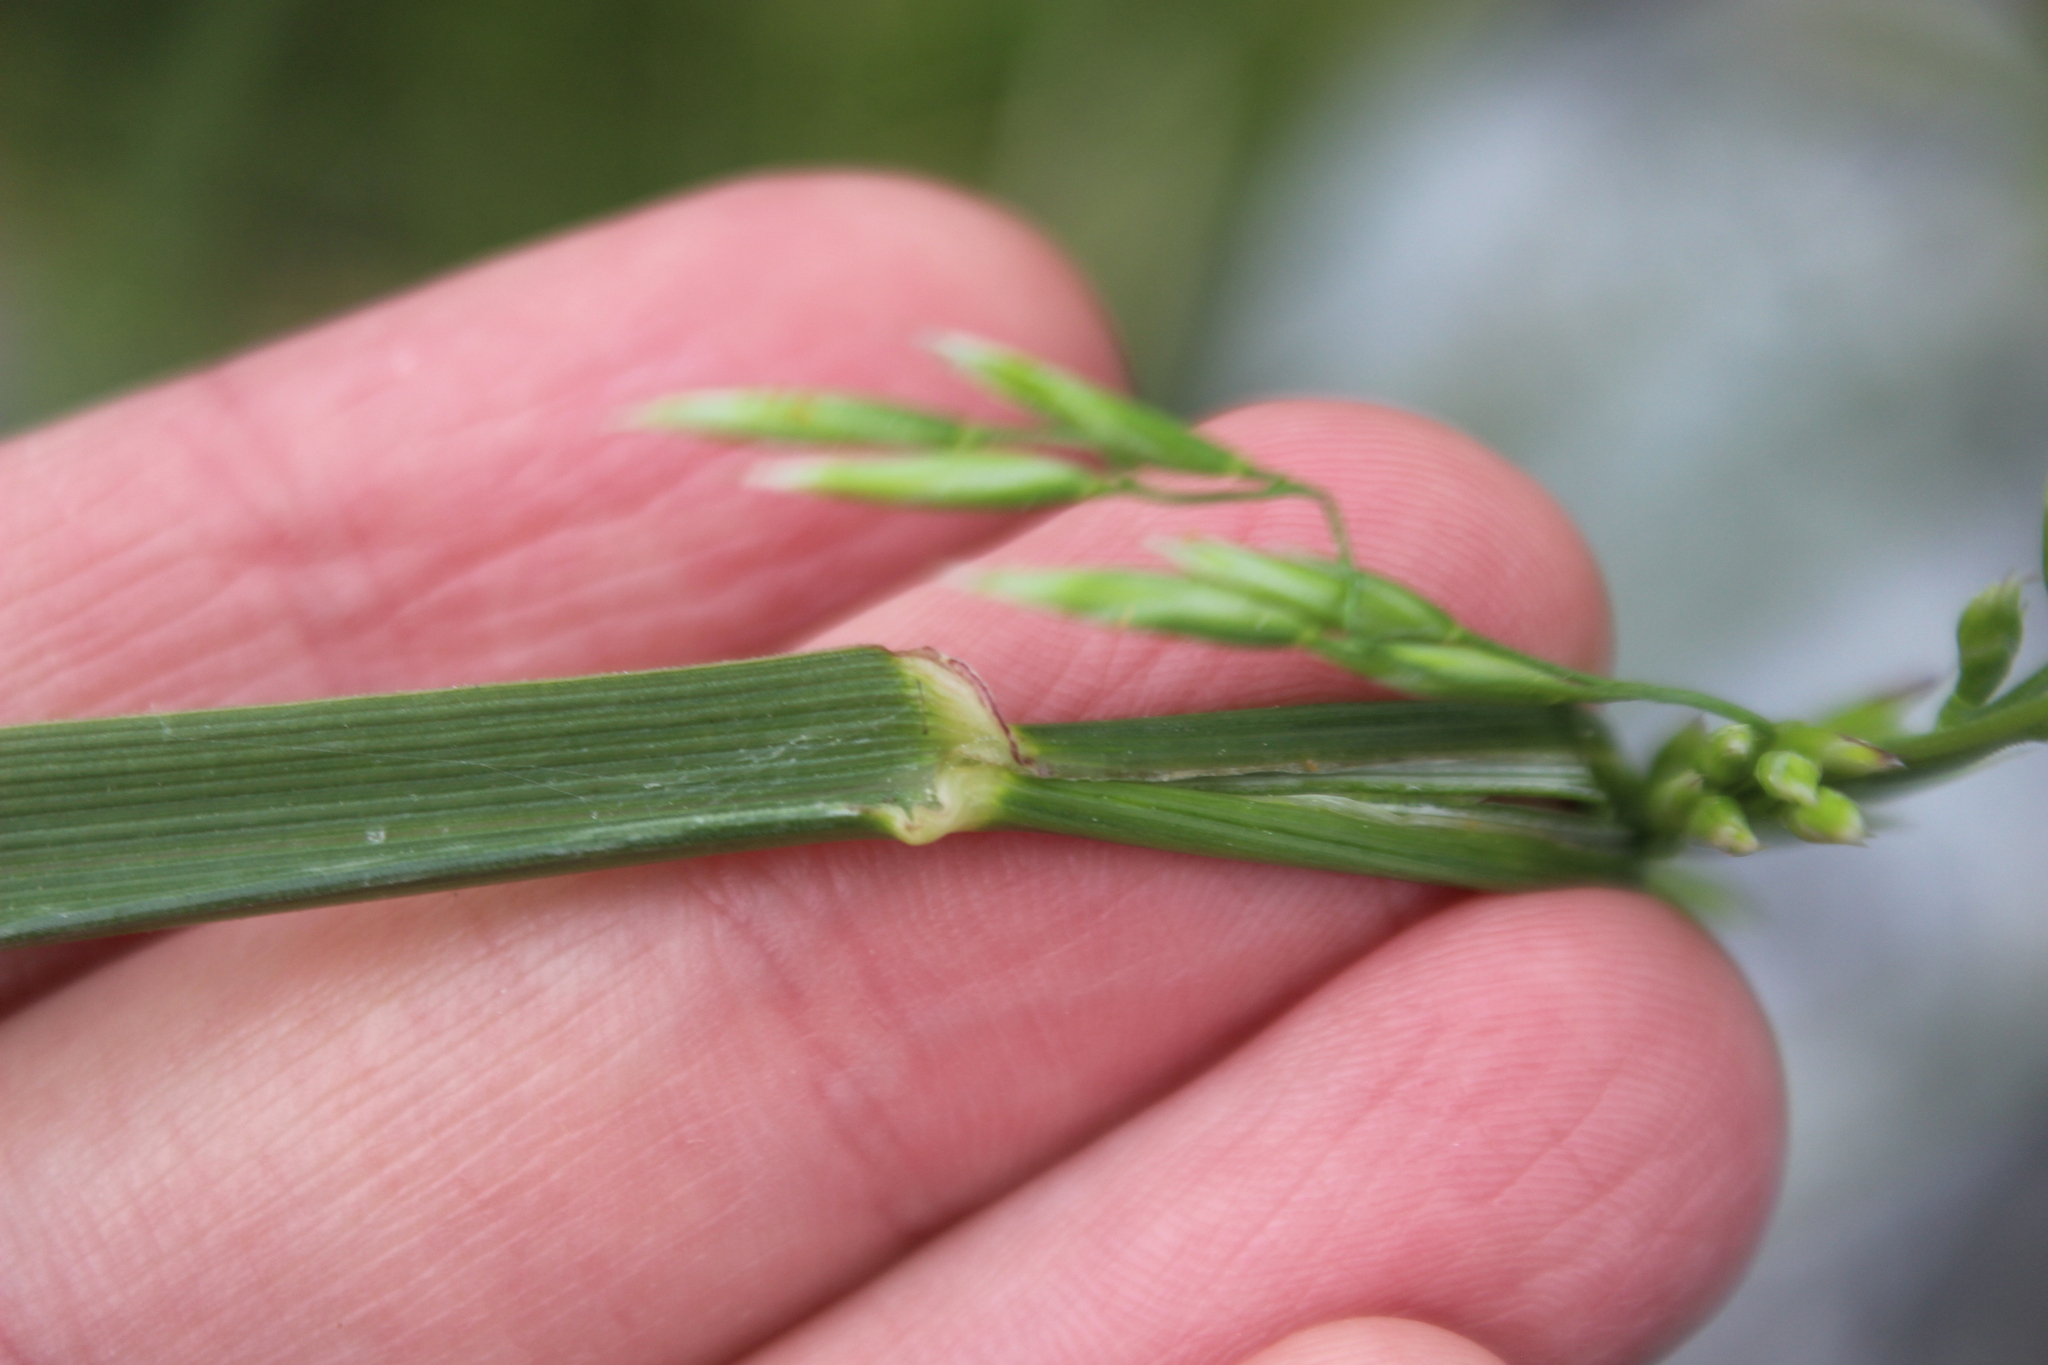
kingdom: Plantae
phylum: Tracheophyta
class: Liliopsida
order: Poales
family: Poaceae
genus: Arrhenatherum
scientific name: Arrhenatherum elatius
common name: Tall oatgrass
